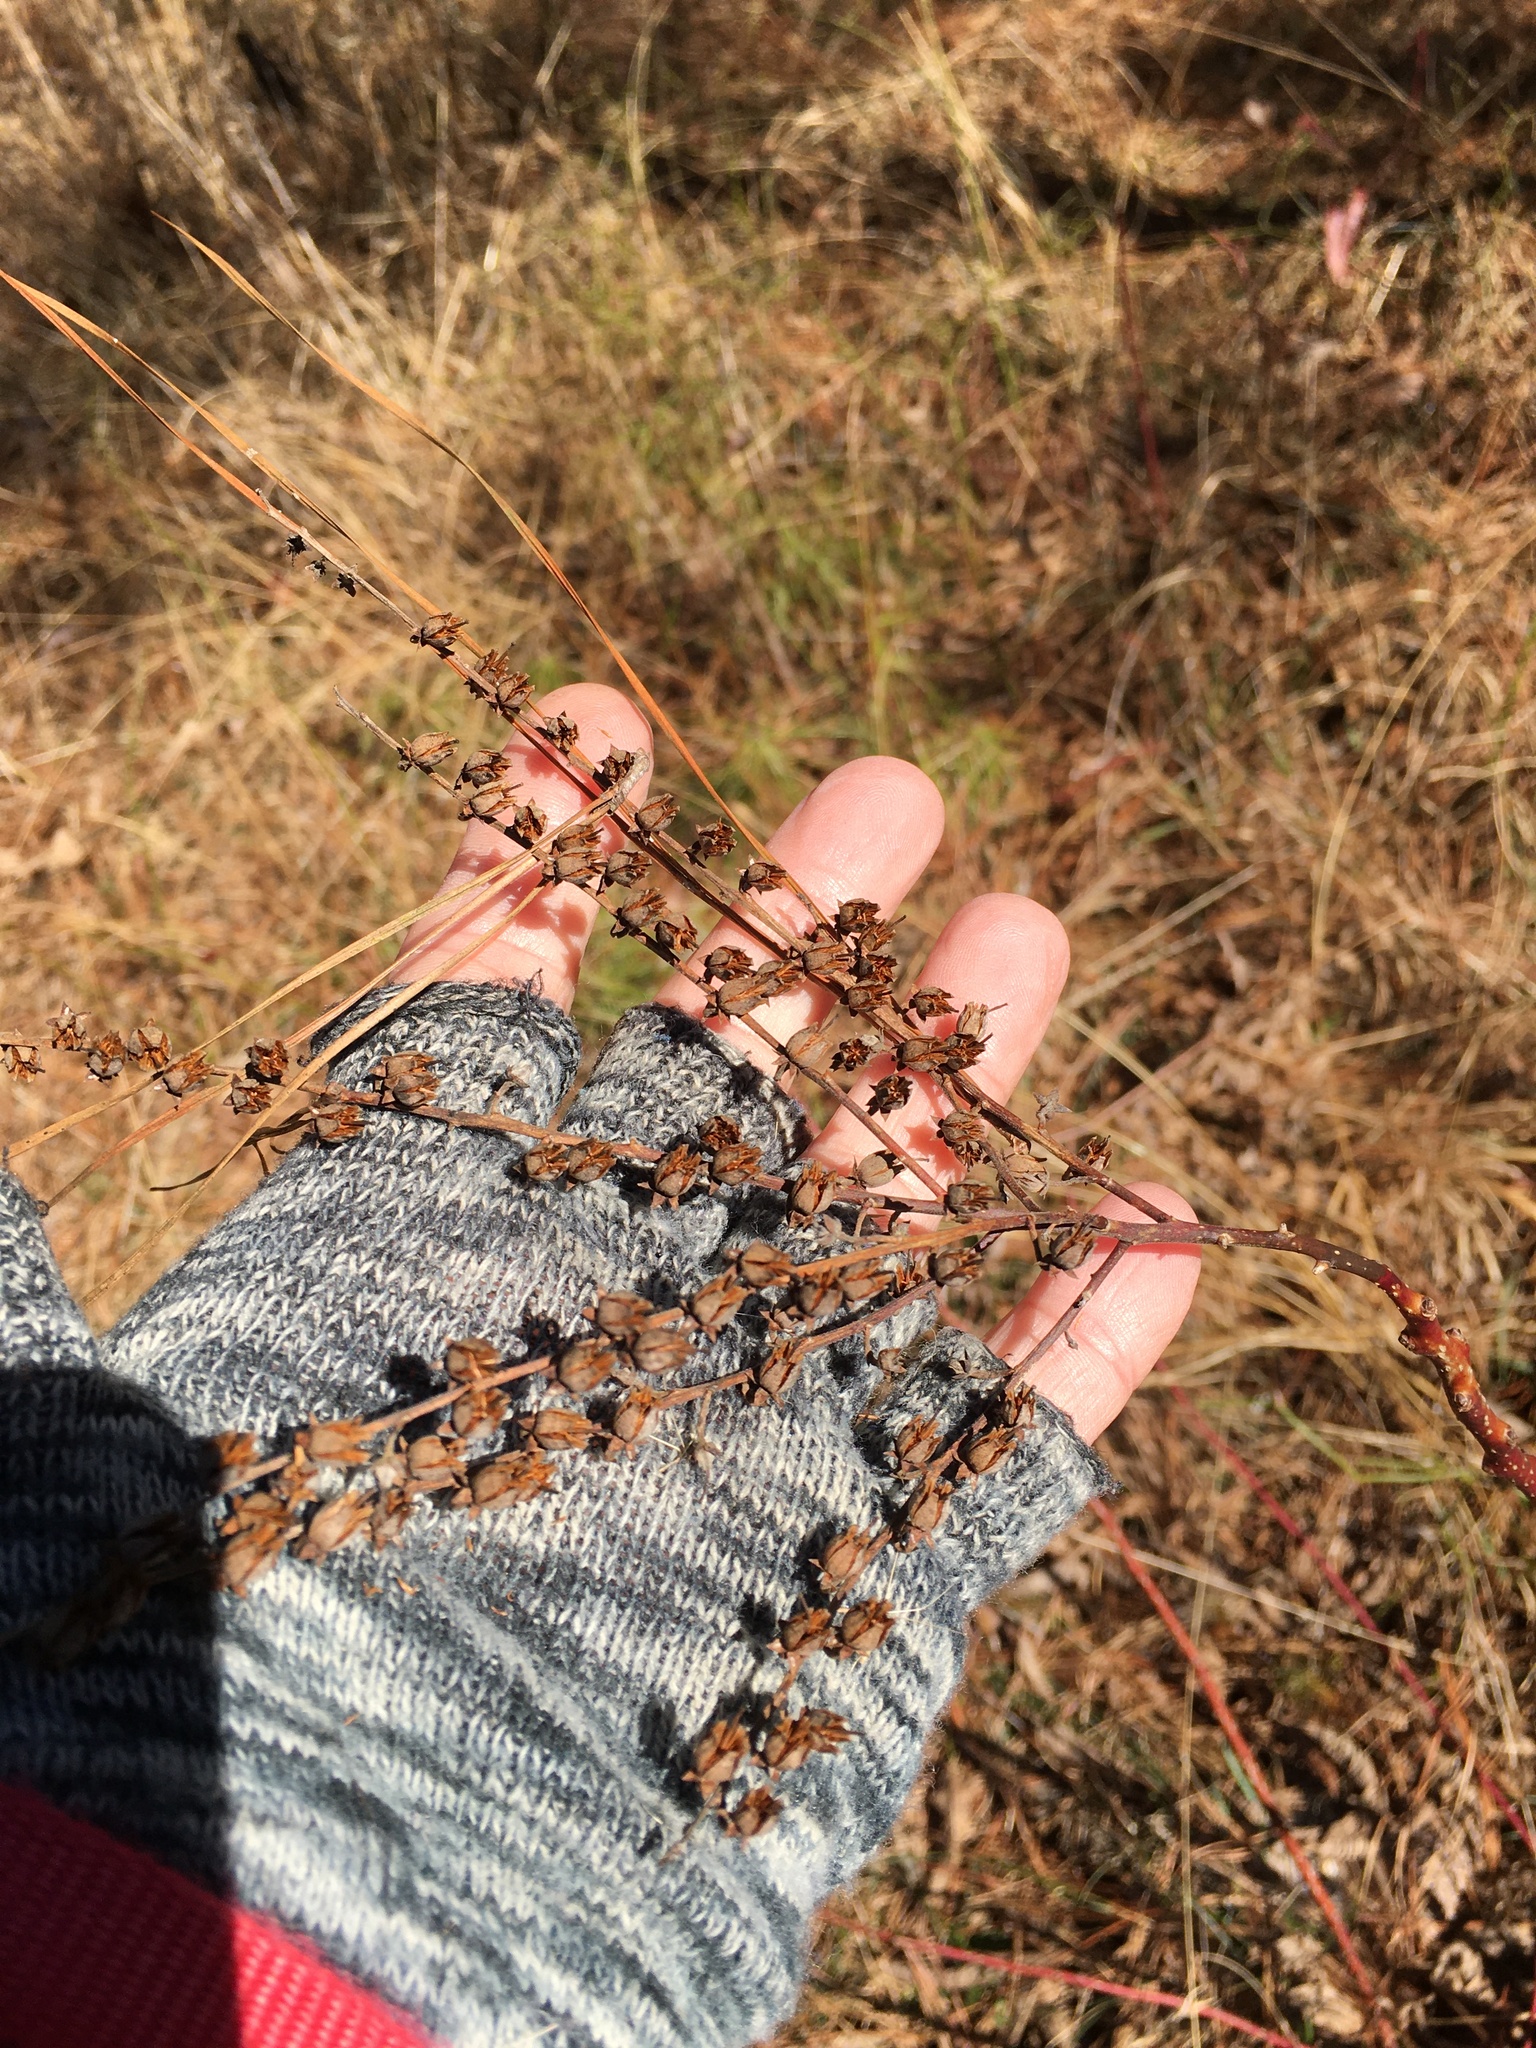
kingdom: Plantae
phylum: Tracheophyta
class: Magnoliopsida
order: Ericales
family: Ericaceae
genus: Oxydendrum
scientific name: Oxydendrum arboreum
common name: Sourwood
